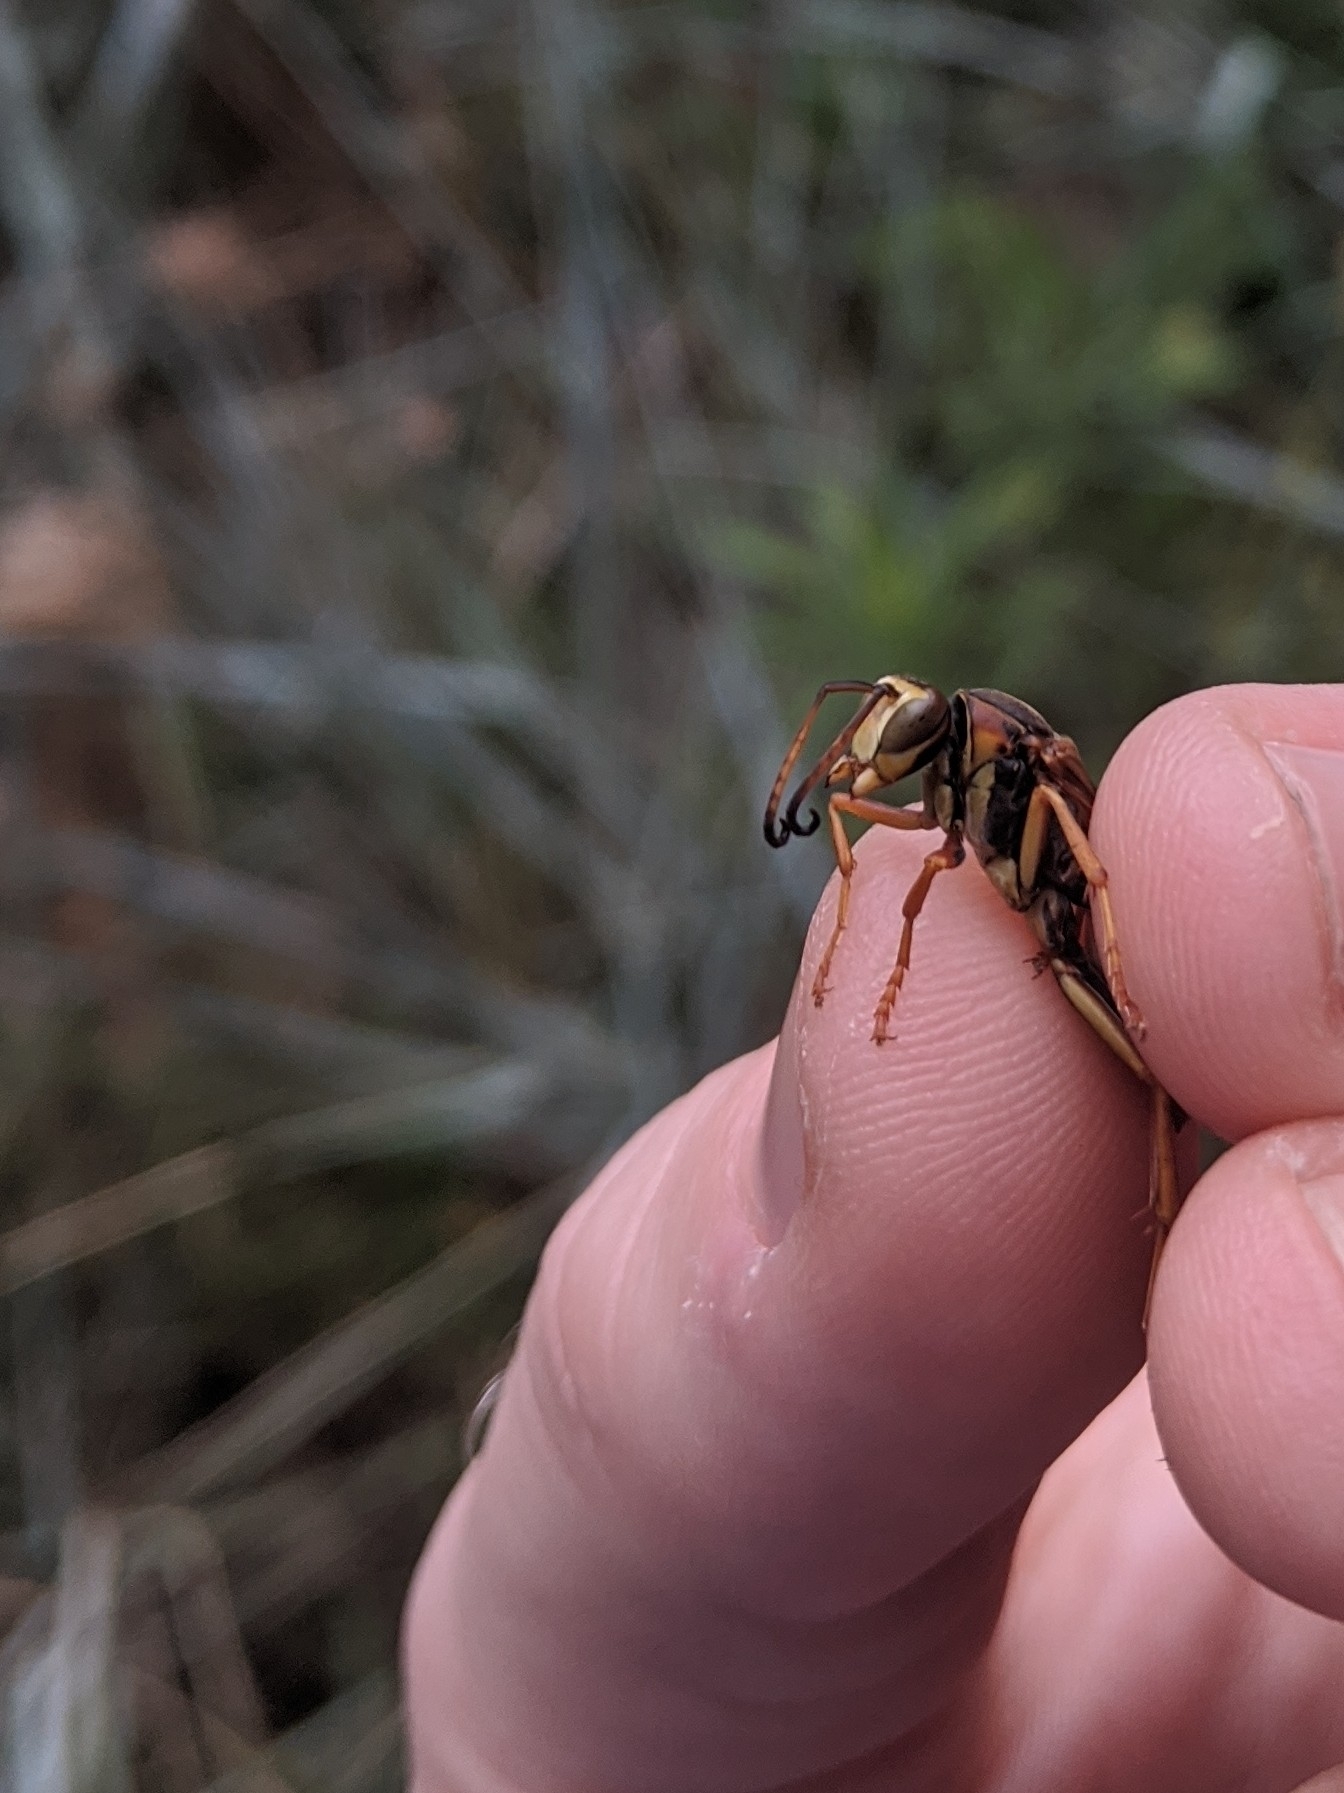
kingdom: Animalia
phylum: Arthropoda
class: Insecta
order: Hymenoptera
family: Eumenidae
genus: Polistes
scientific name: Polistes fuscatus
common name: Dark paper wasp
